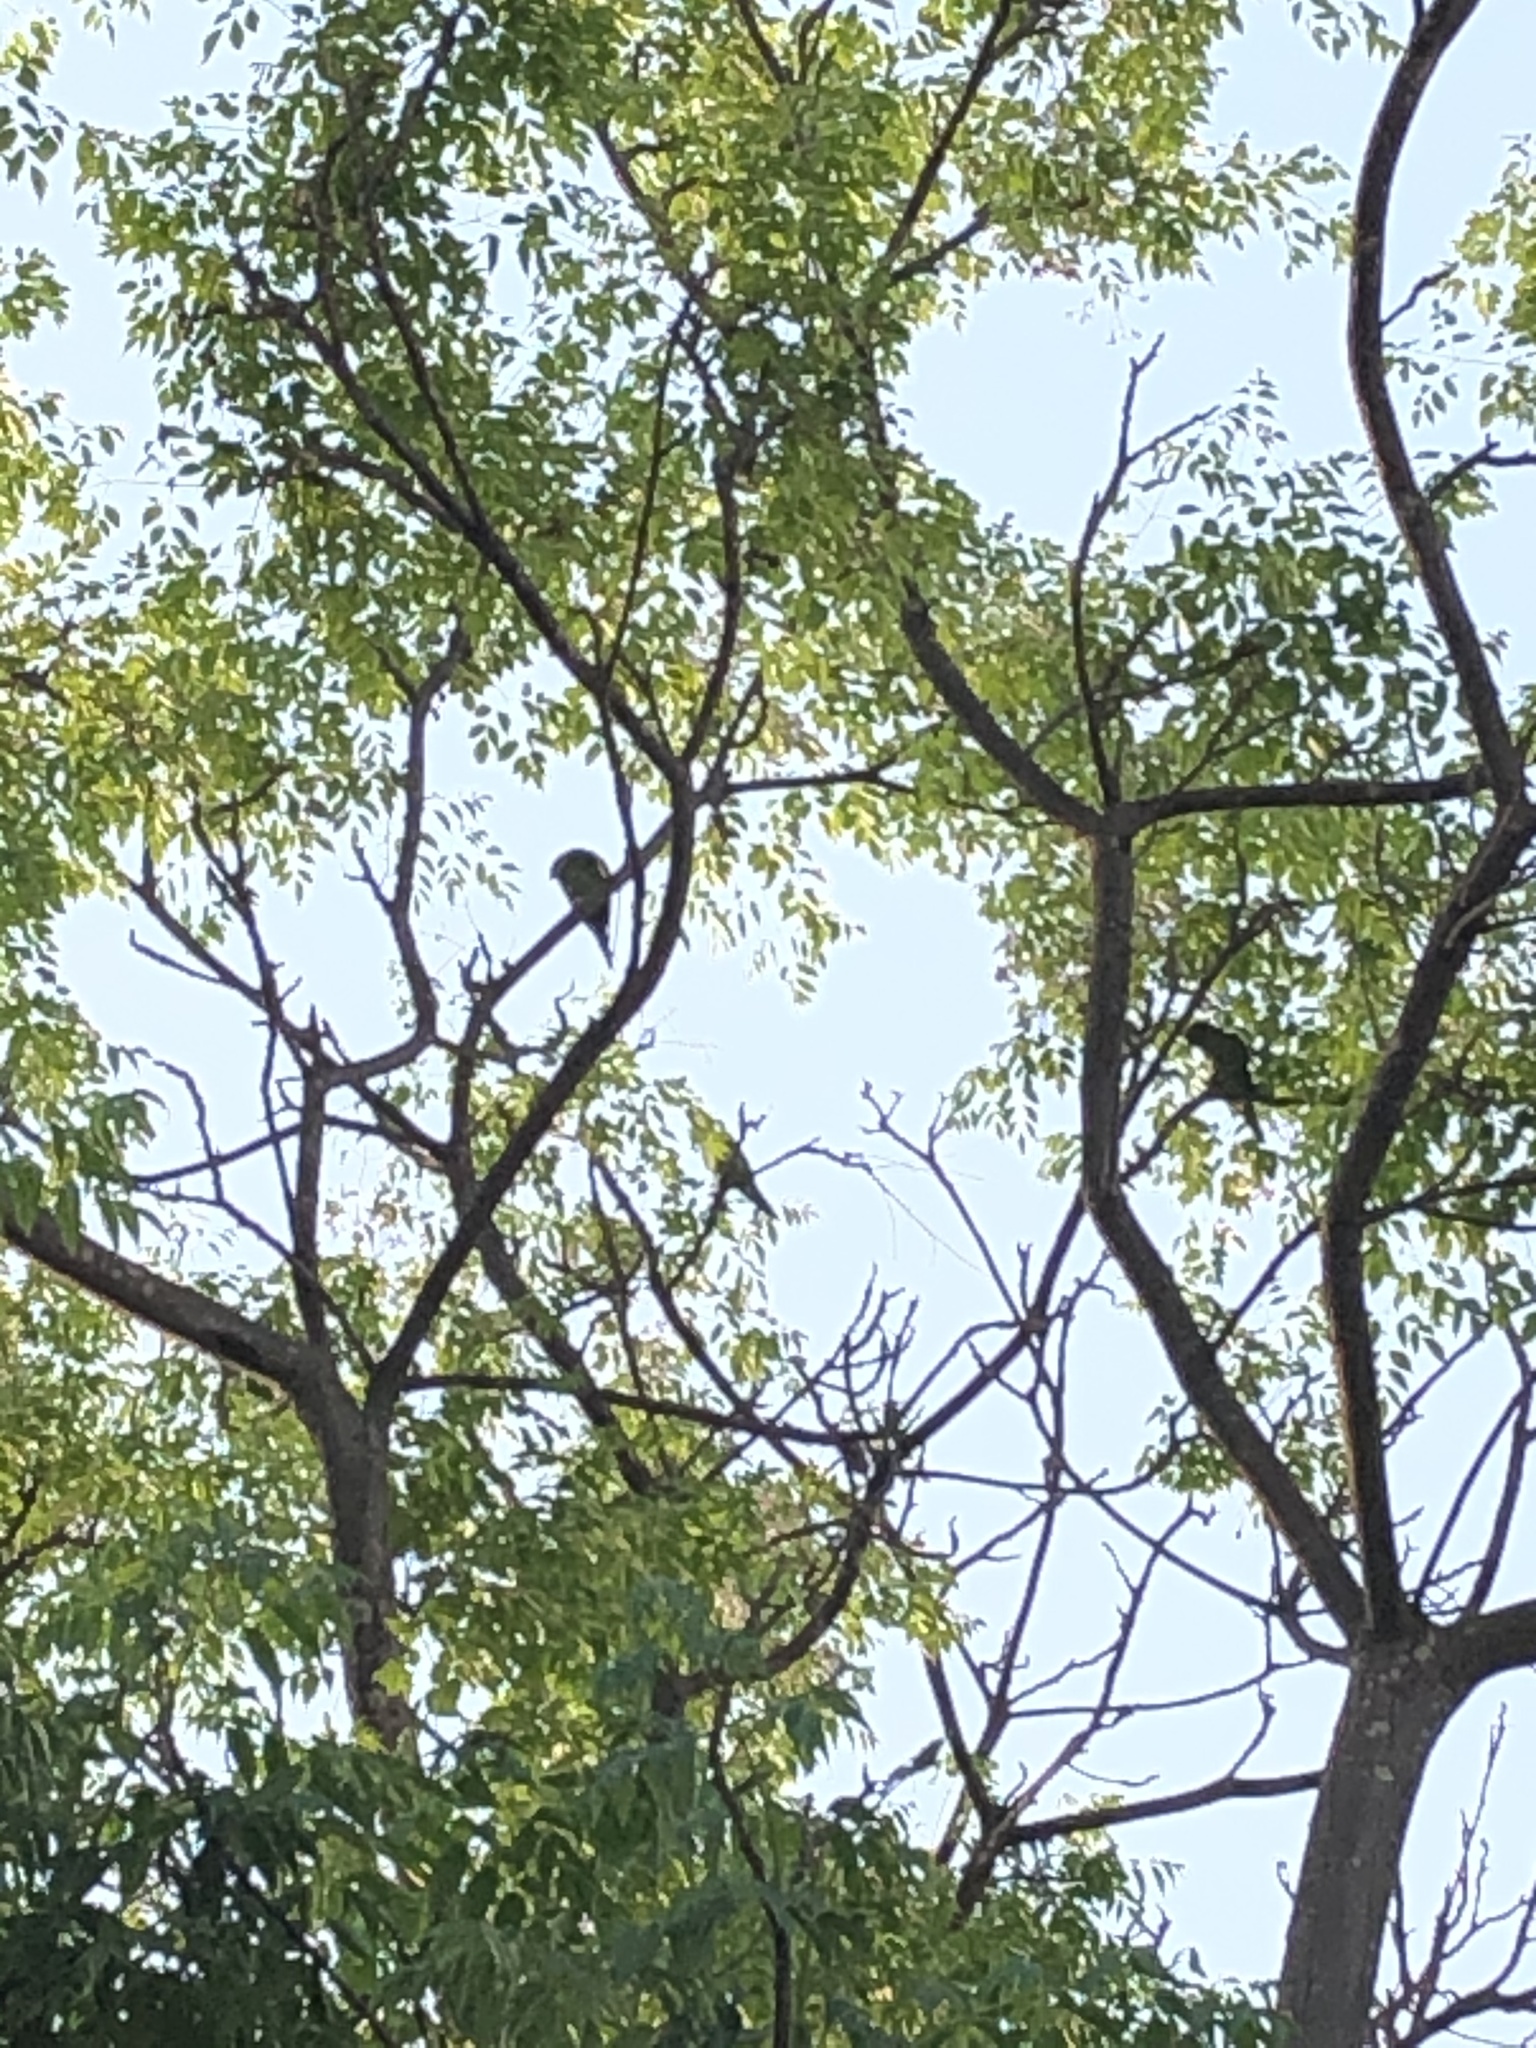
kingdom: Animalia
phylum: Chordata
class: Aves
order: Psittaciformes
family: Psittacidae
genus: Brotogeris
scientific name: Brotogeris versicolurus
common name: White-winged parakeet
